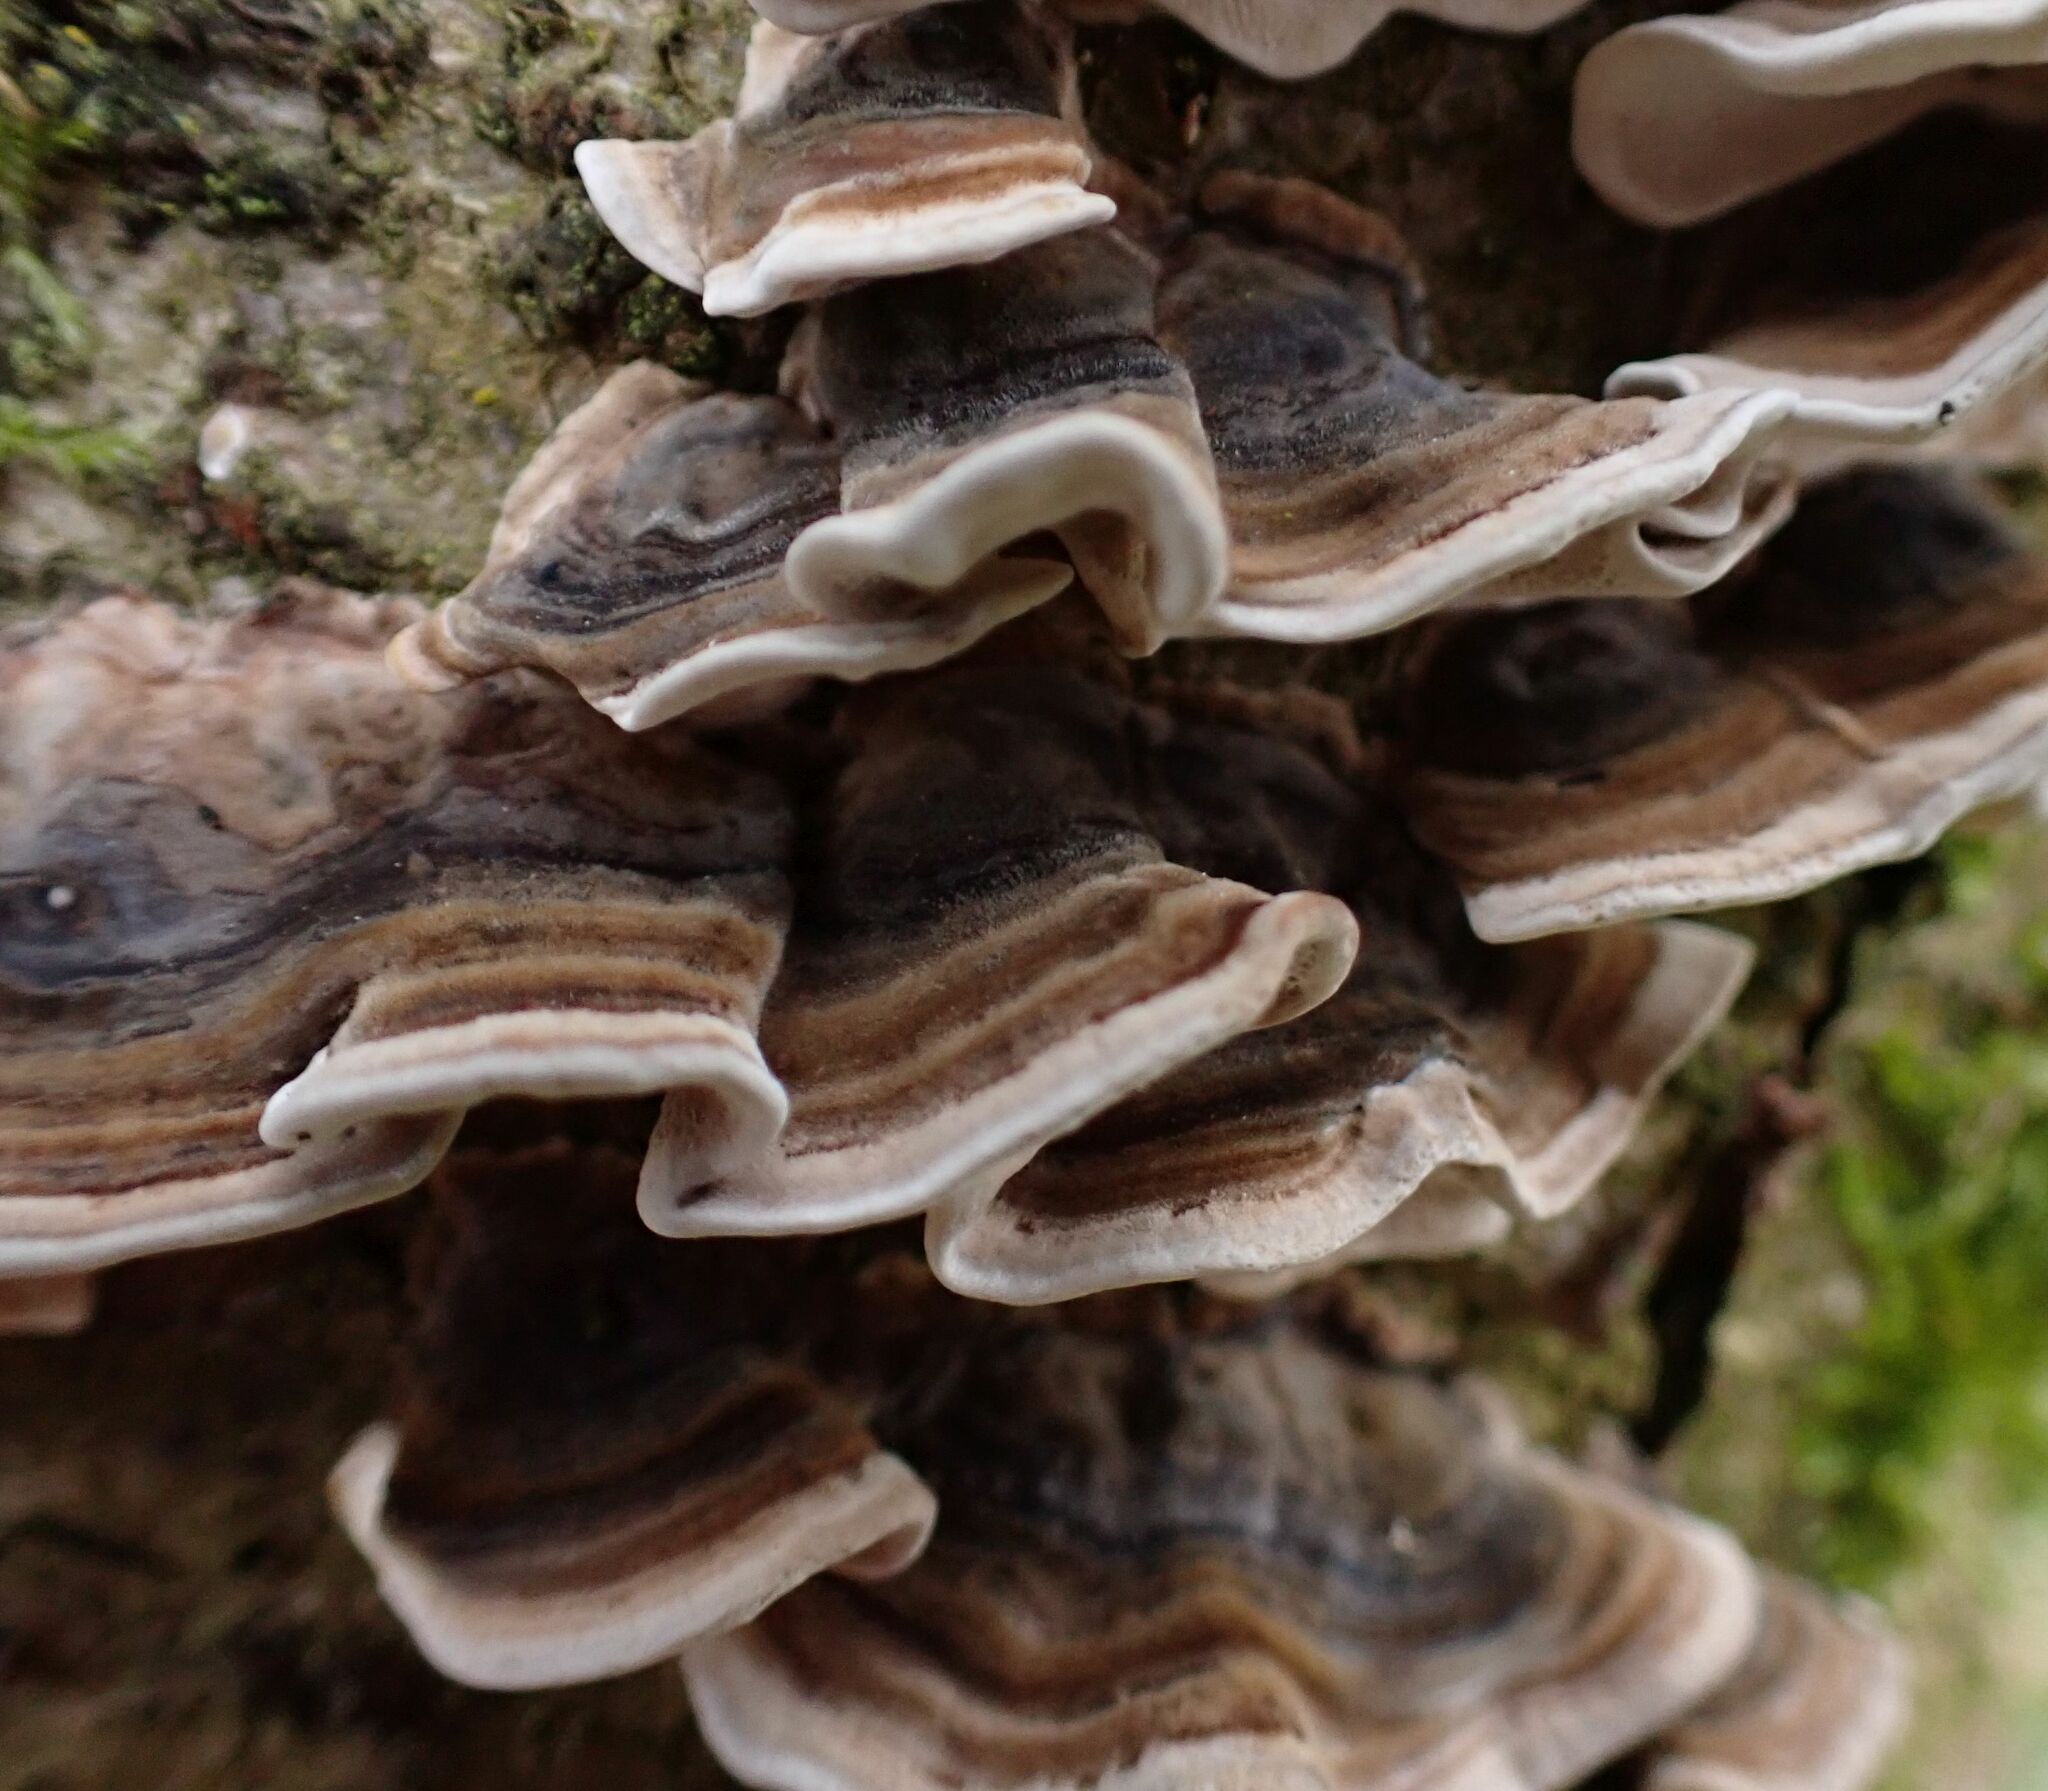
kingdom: Fungi
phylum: Basidiomycota
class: Agaricomycetes
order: Polyporales
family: Polyporaceae
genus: Trametes
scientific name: Trametes versicolor
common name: Turkeytail
